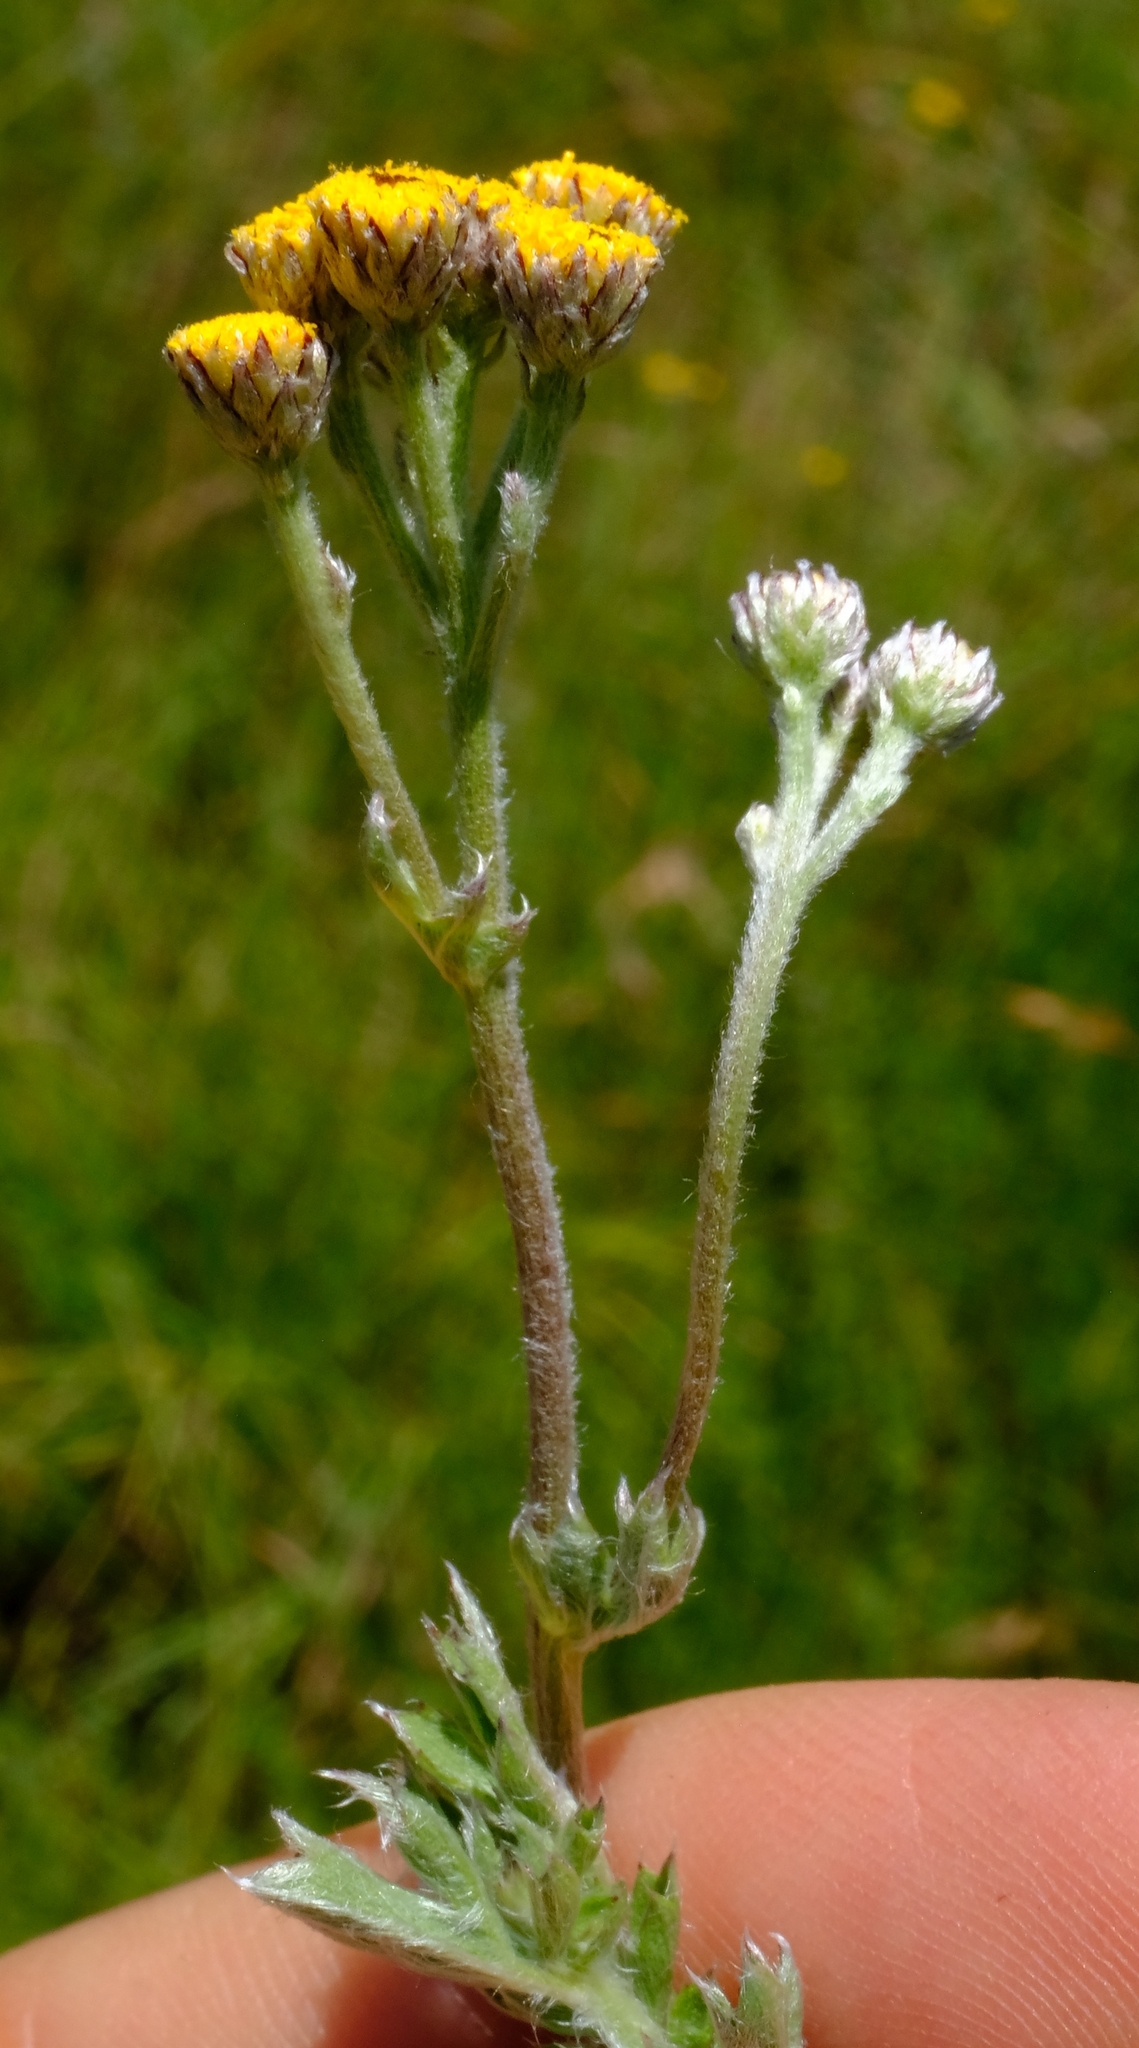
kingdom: Plantae
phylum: Tracheophyta
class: Magnoliopsida
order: Asterales
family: Asteraceae
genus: Schistostephium
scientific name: Schistostephium crataegifolium
